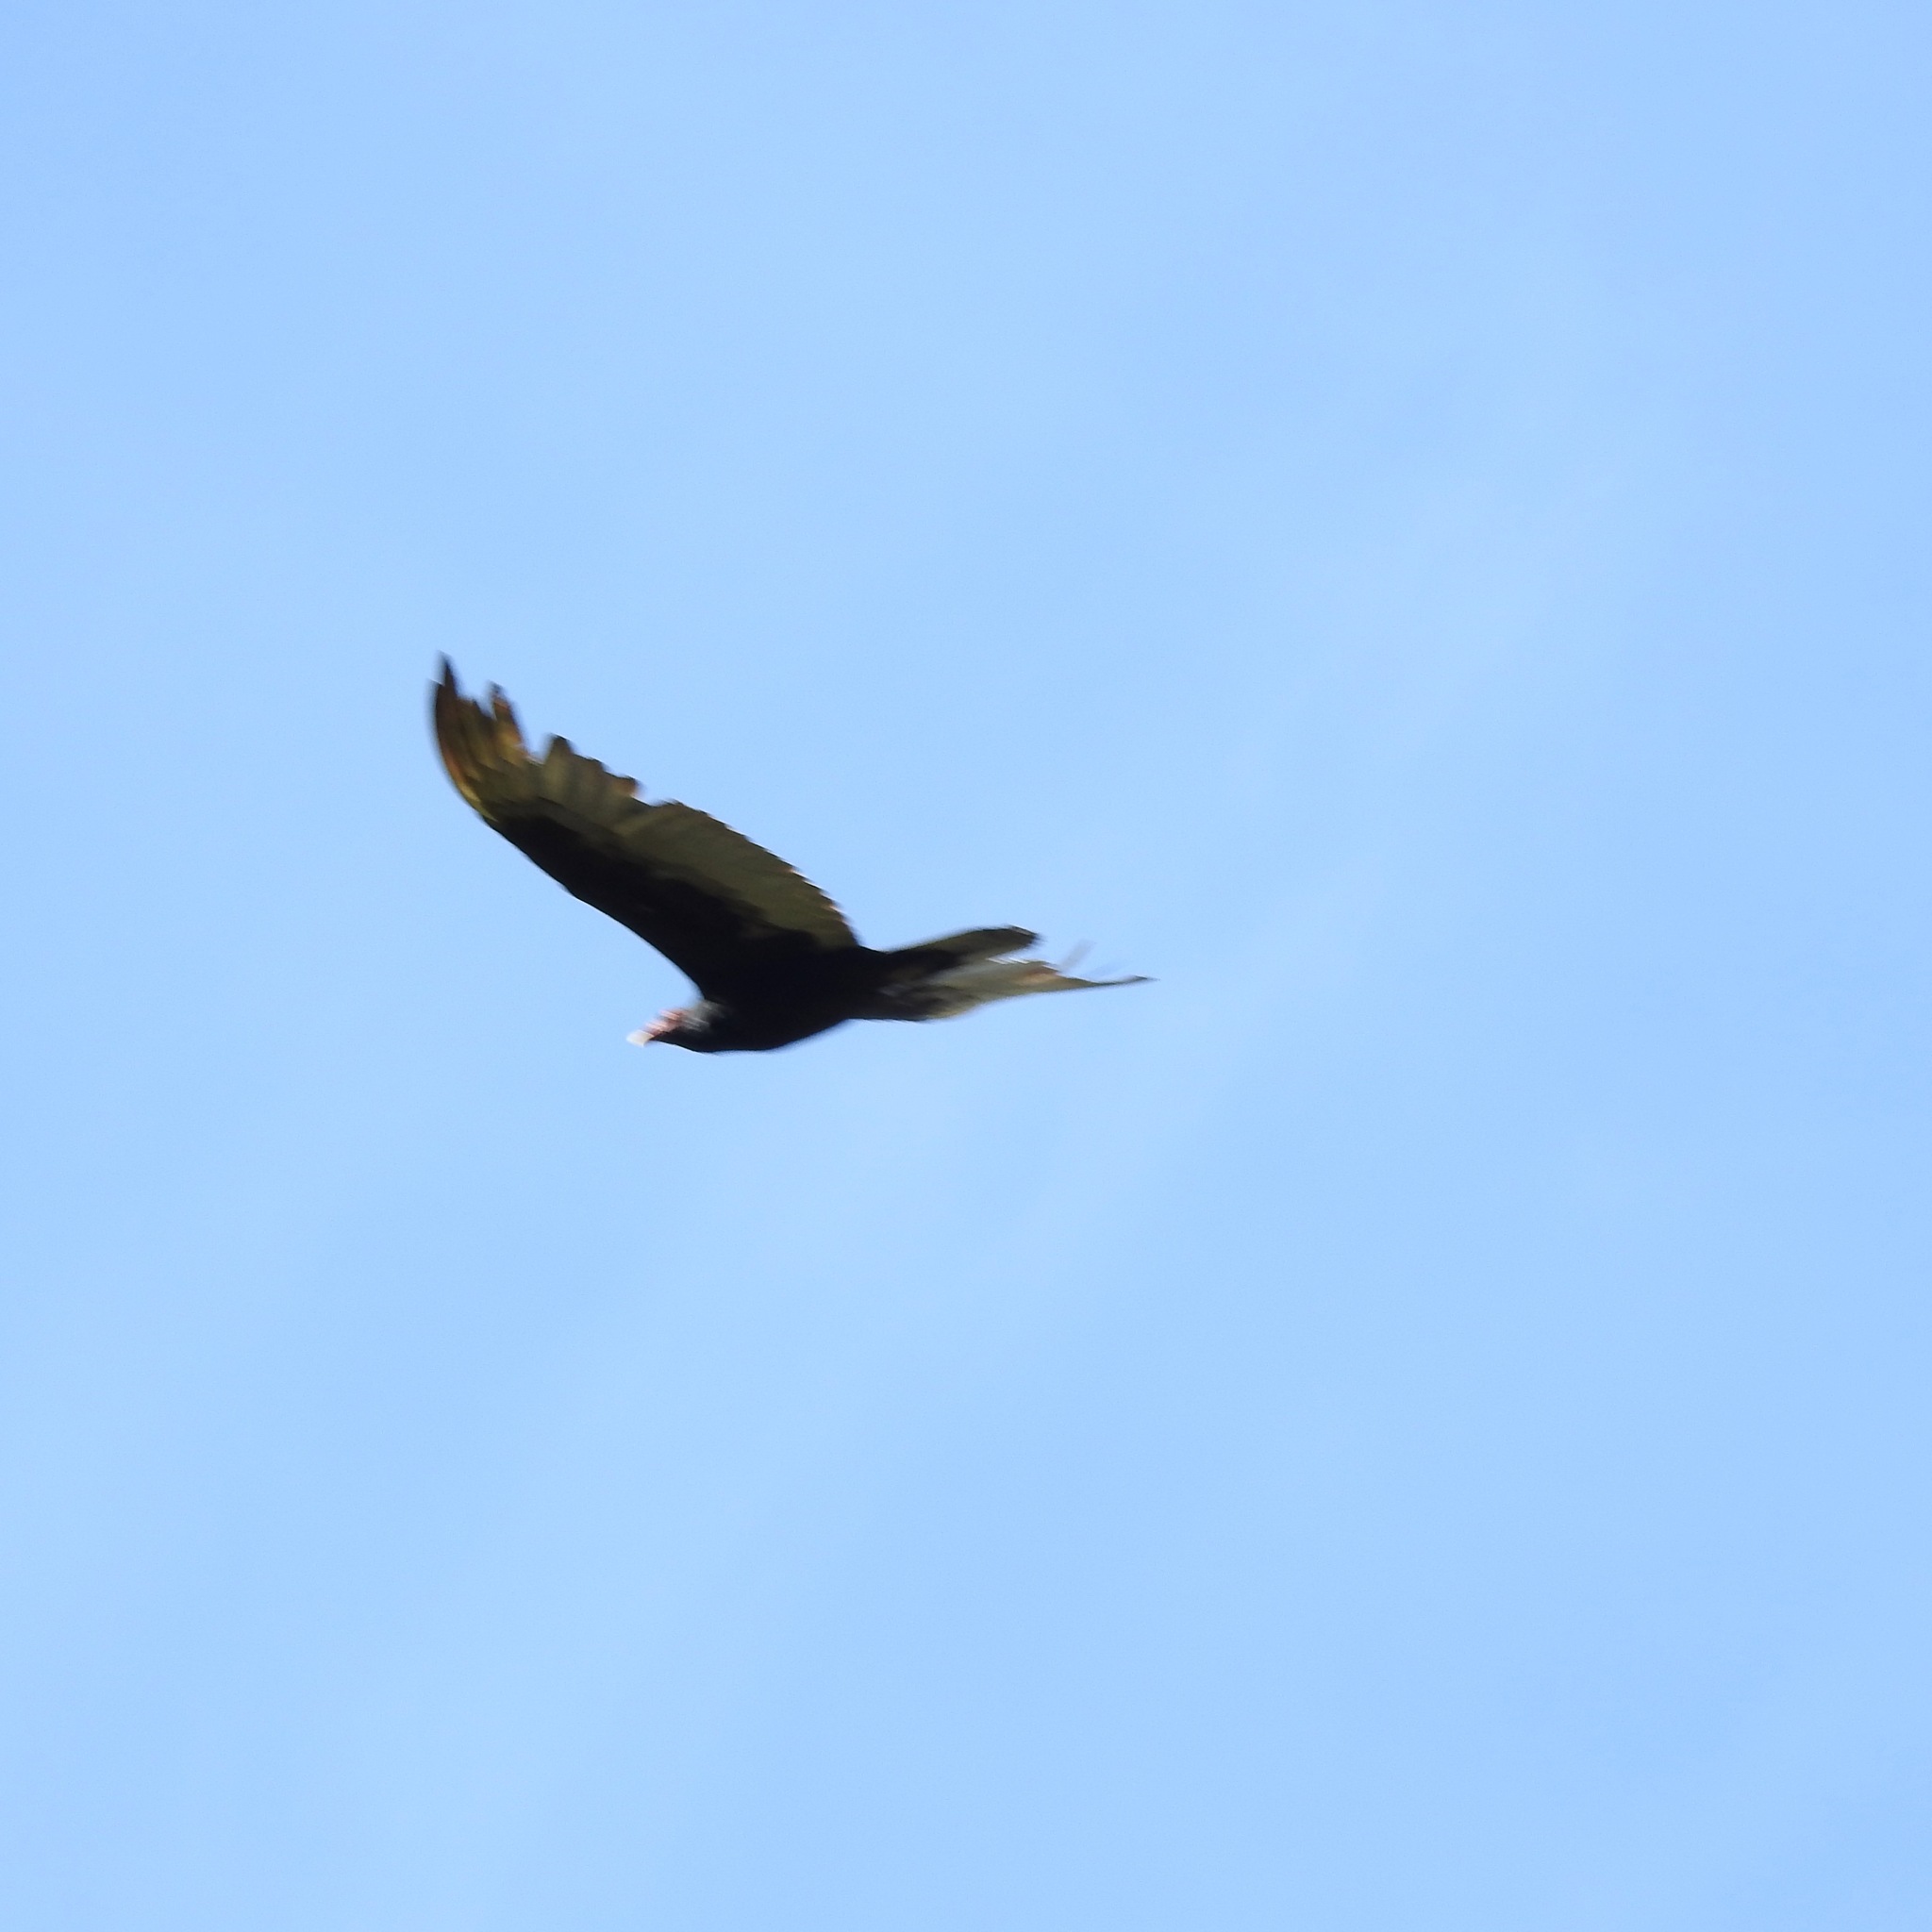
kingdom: Animalia
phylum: Chordata
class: Aves
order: Accipitriformes
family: Cathartidae
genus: Cathartes
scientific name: Cathartes aura
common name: Turkey vulture
